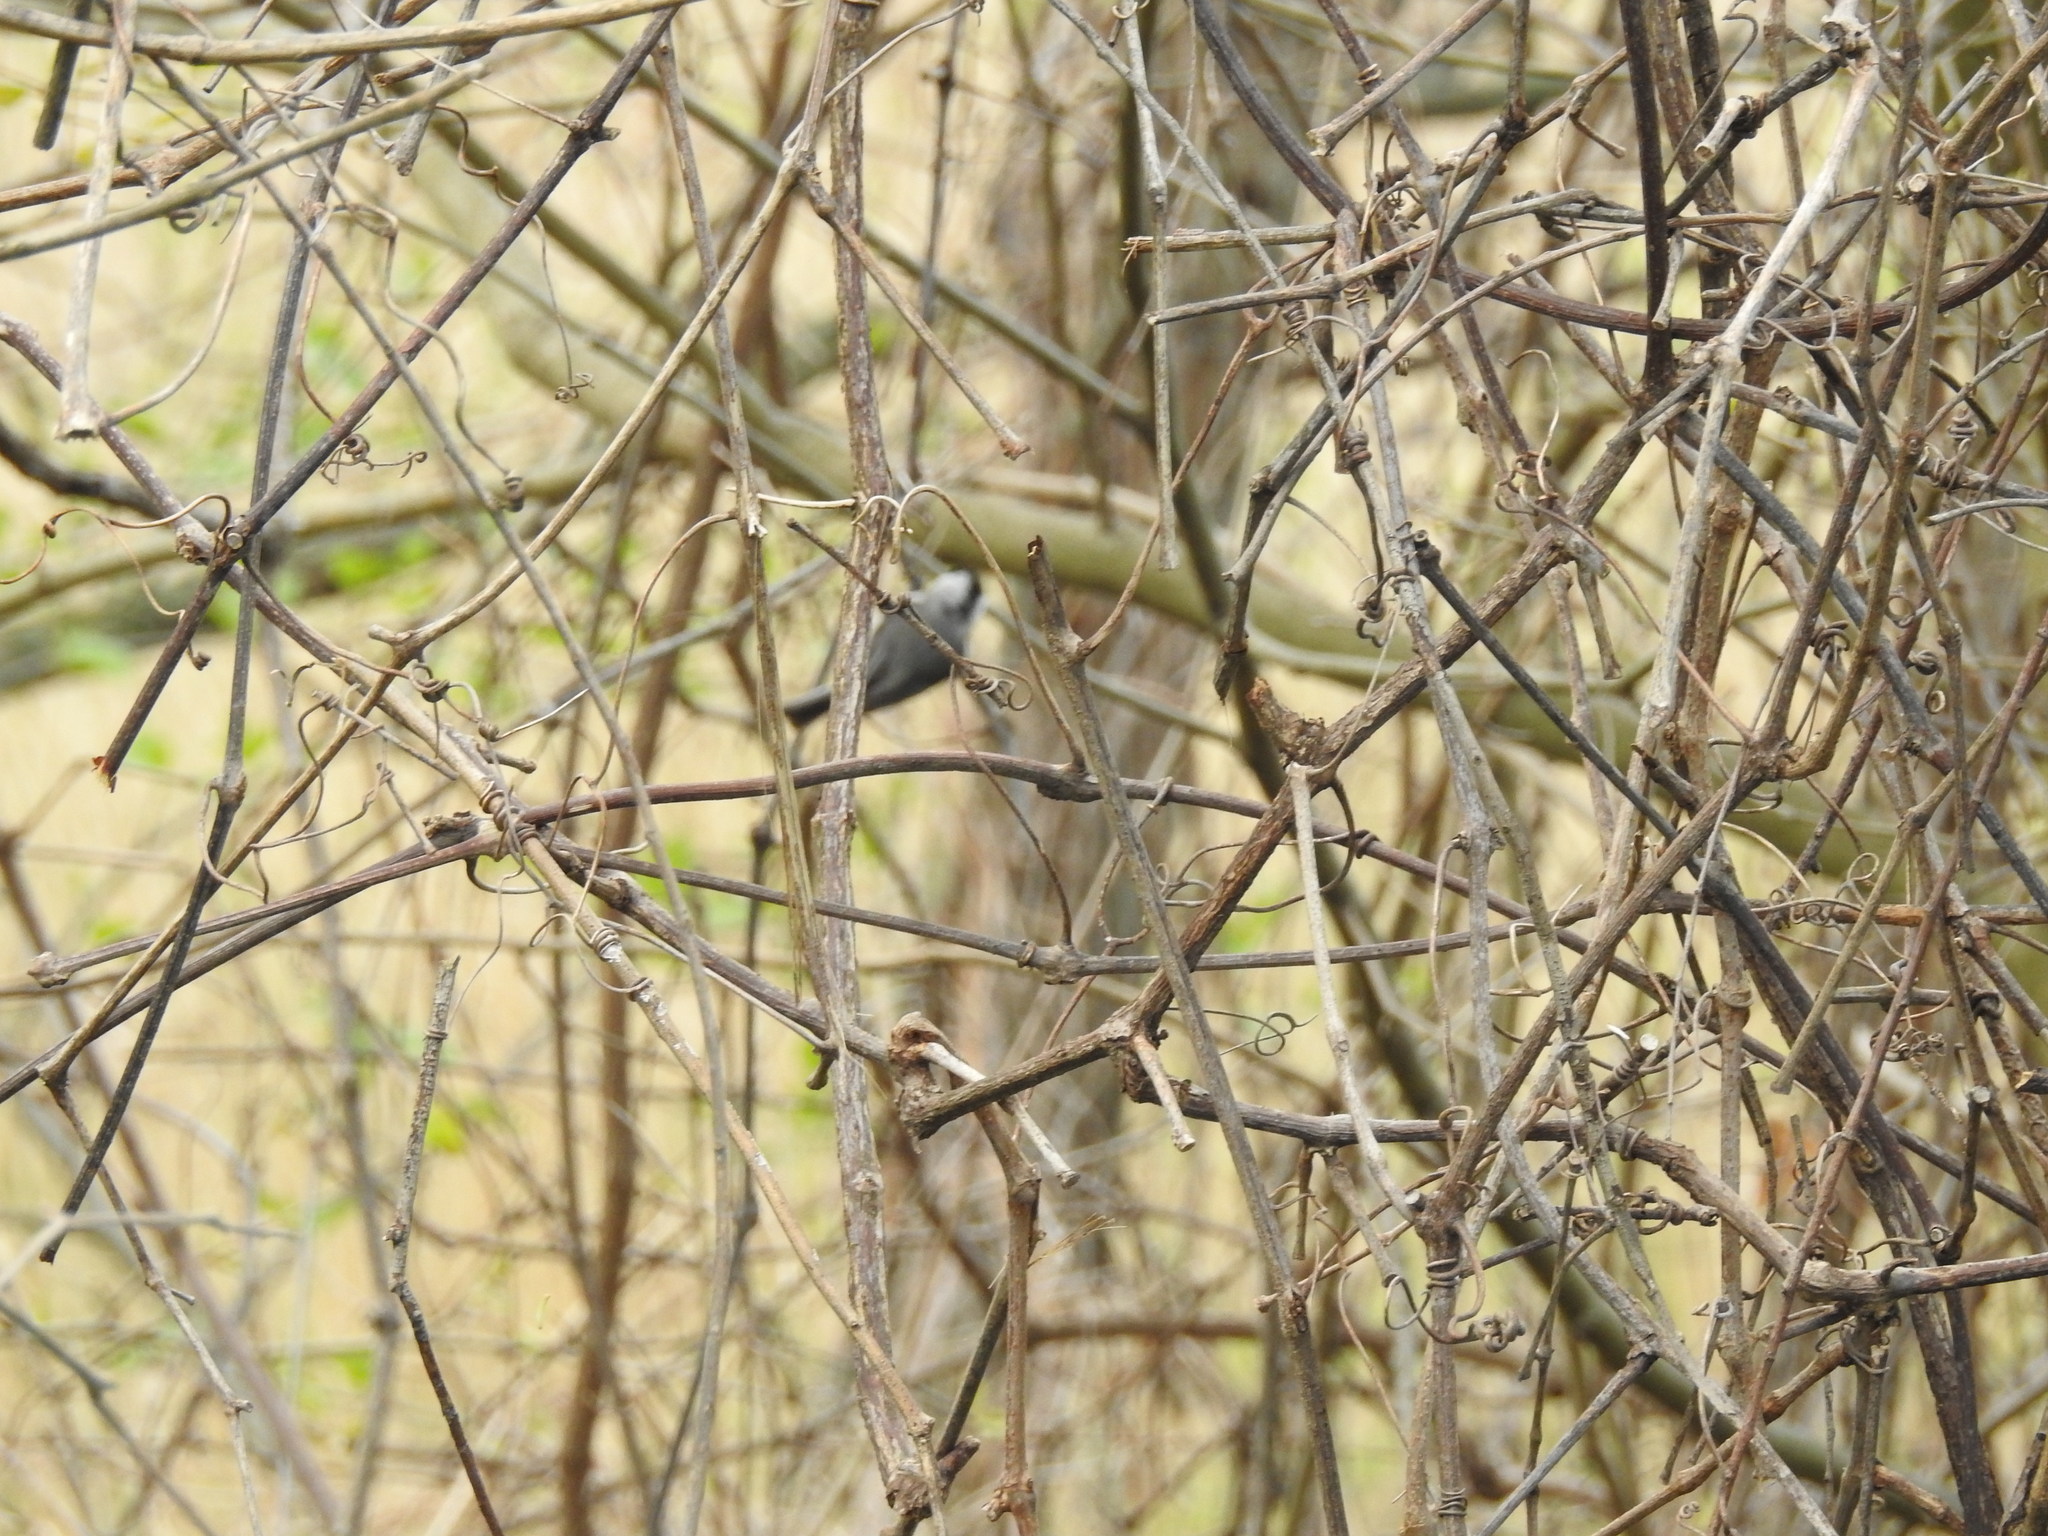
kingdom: Animalia
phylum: Chordata
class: Aves
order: Passeriformes
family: Paridae
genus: Poecile
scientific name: Poecile carolinensis
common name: Carolina chickadee
